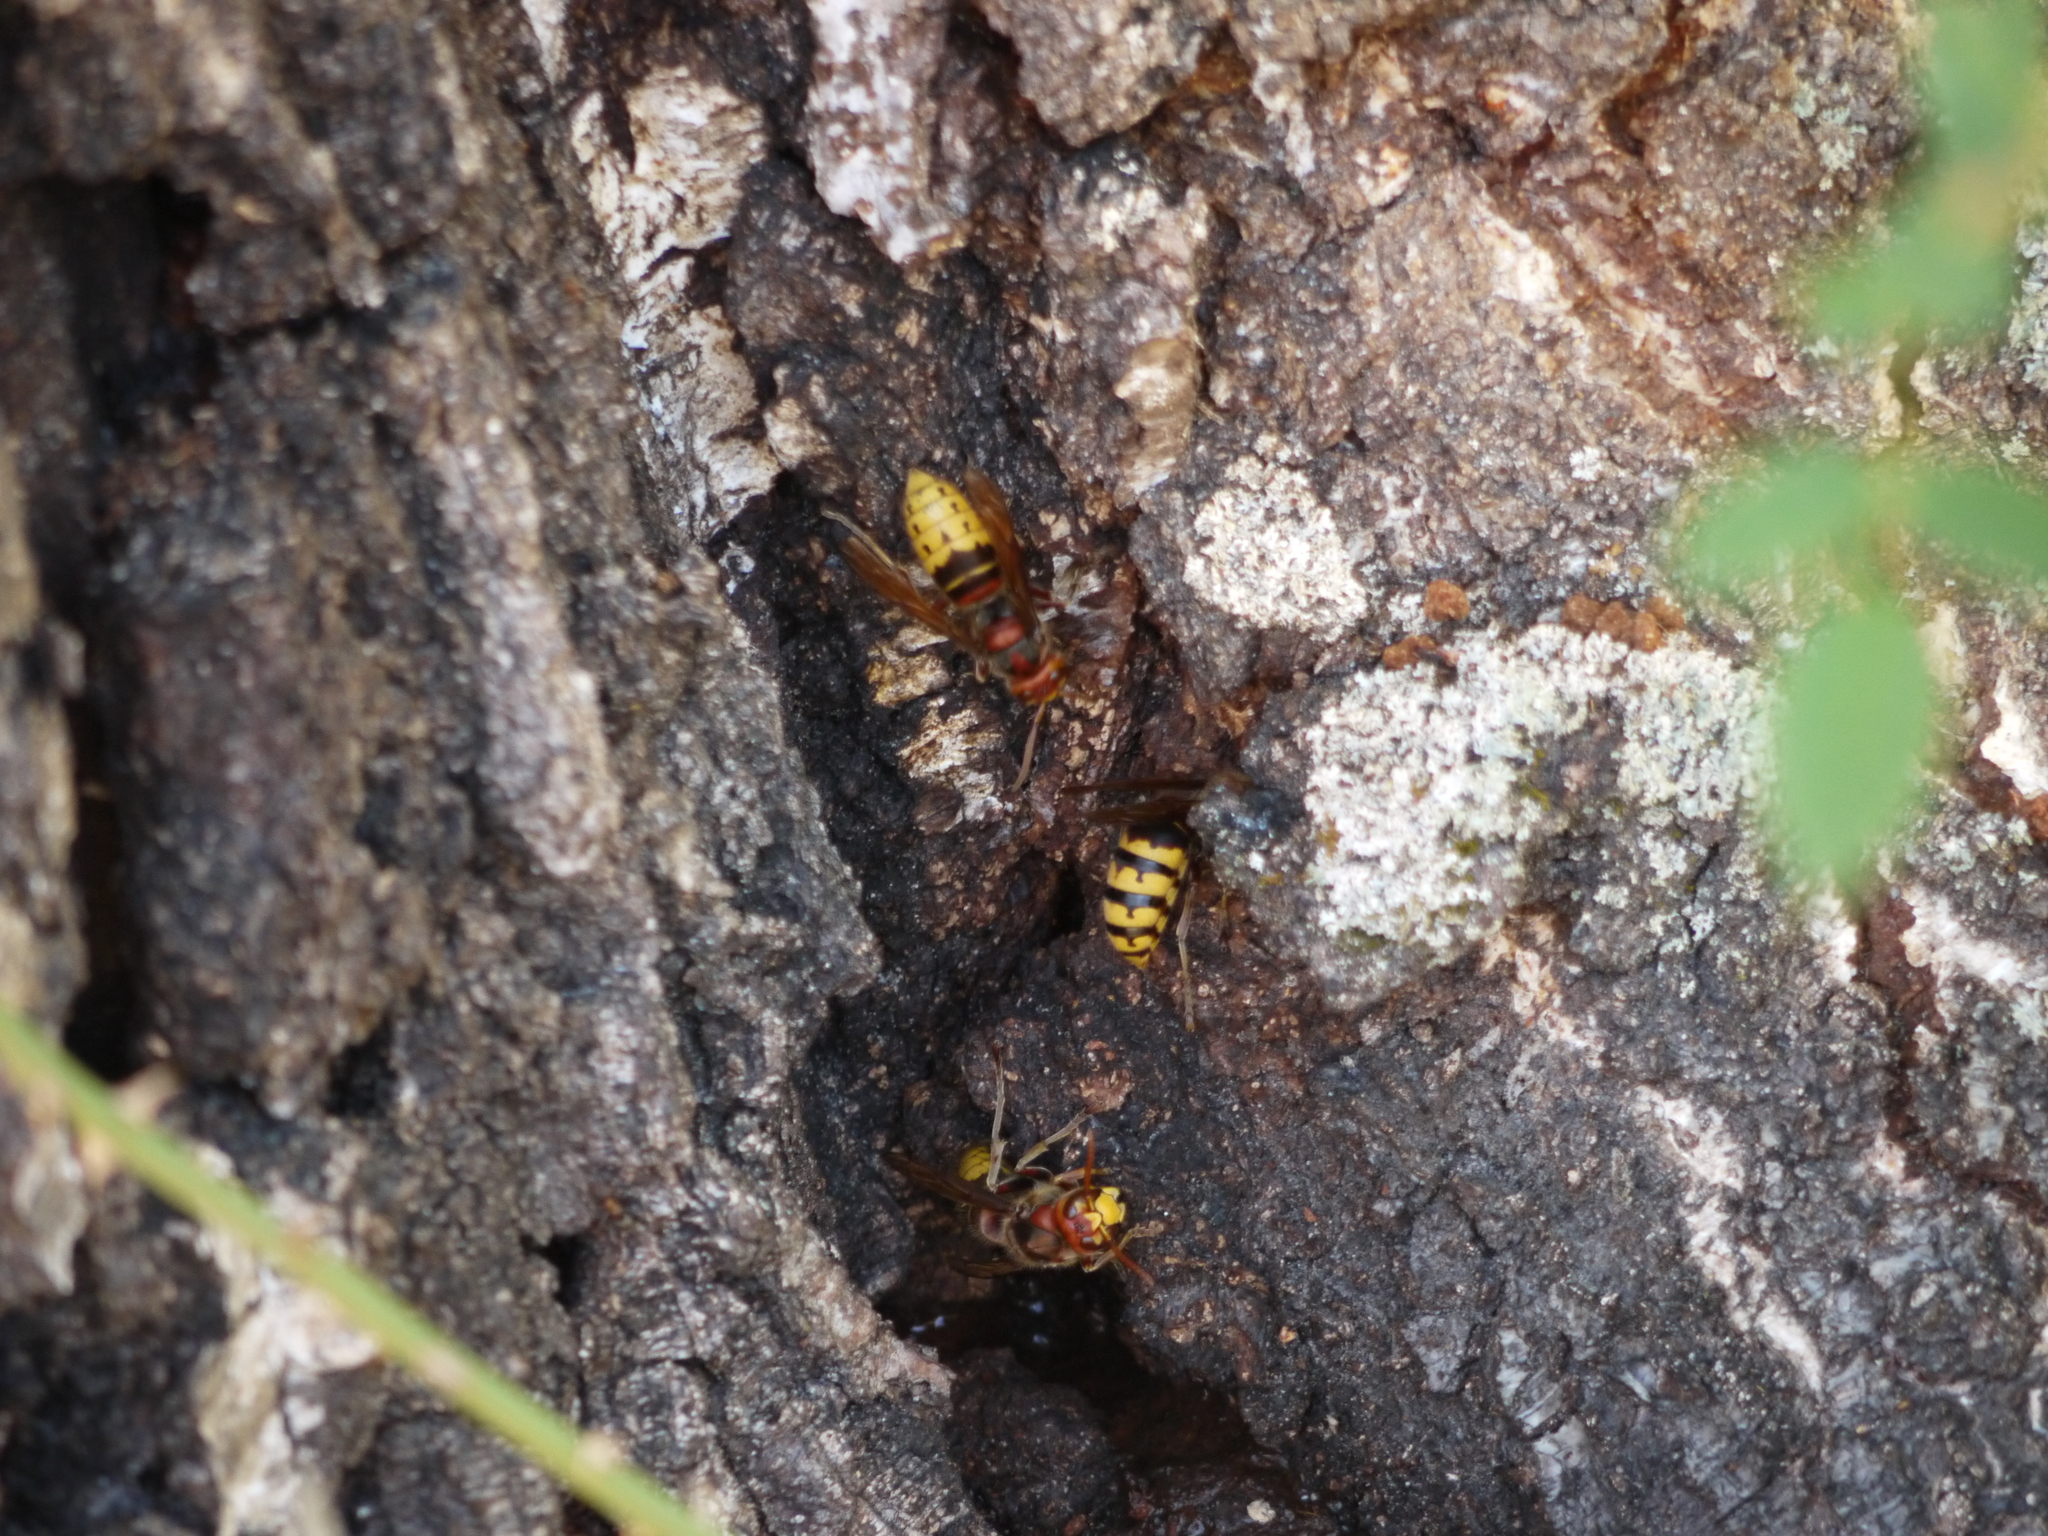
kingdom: Animalia
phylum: Arthropoda
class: Insecta
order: Hymenoptera
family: Vespidae
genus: Vespa
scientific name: Vespa crabro
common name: Hornet
